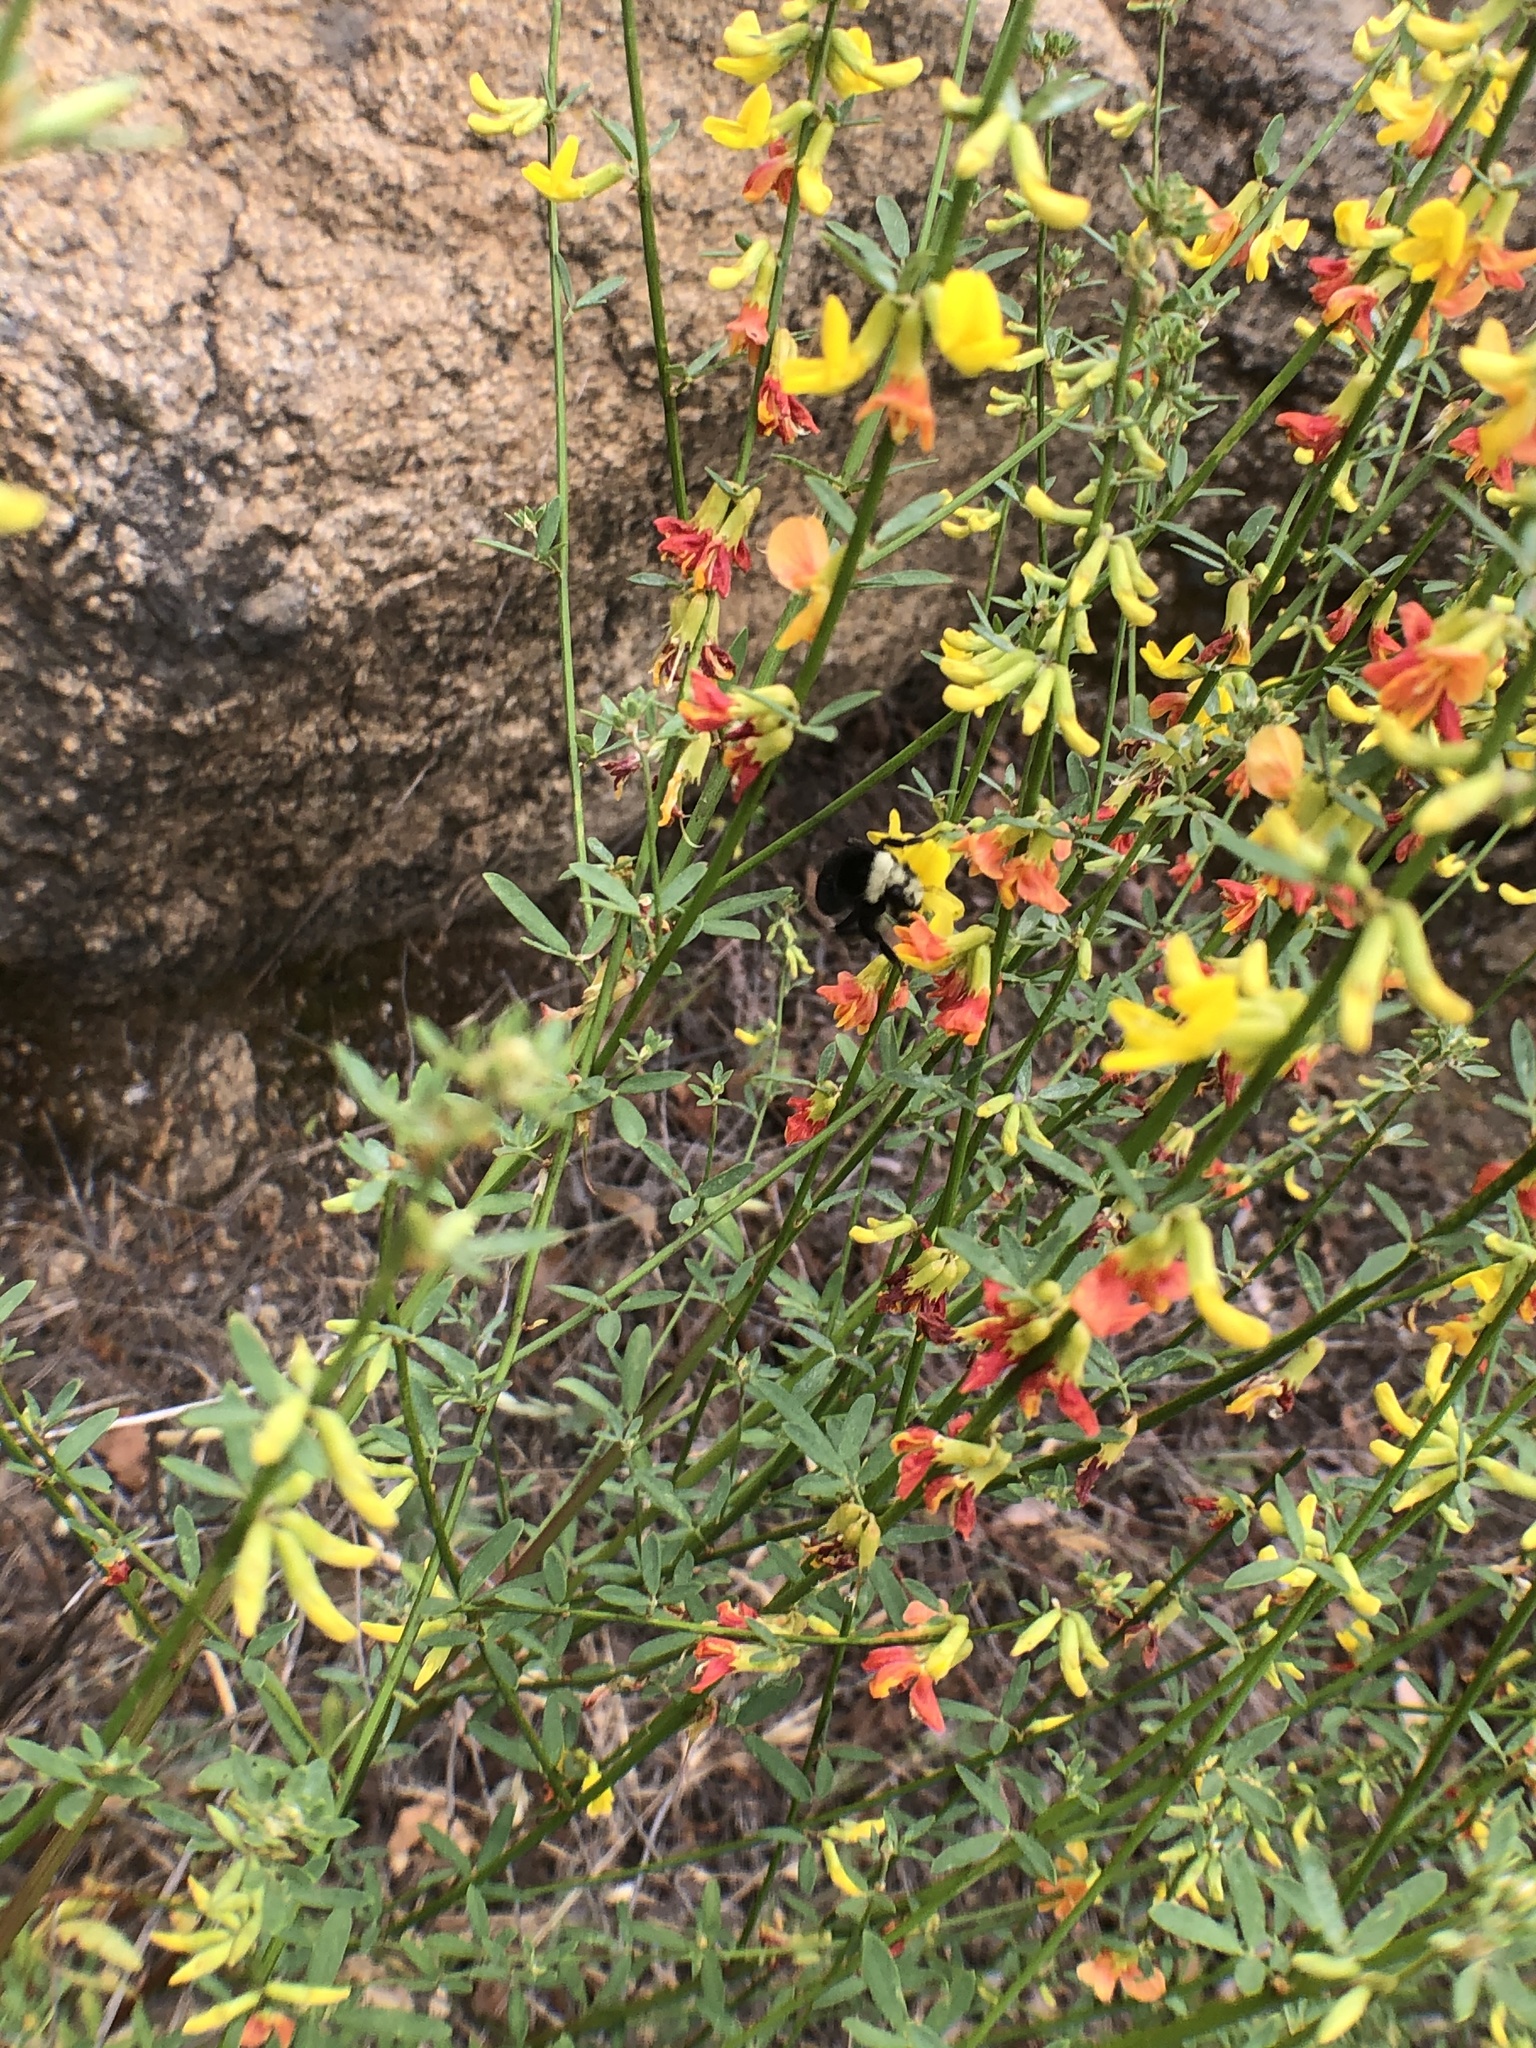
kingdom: Plantae
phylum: Tracheophyta
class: Magnoliopsida
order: Fabales
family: Fabaceae
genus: Acmispon
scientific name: Acmispon glaber
